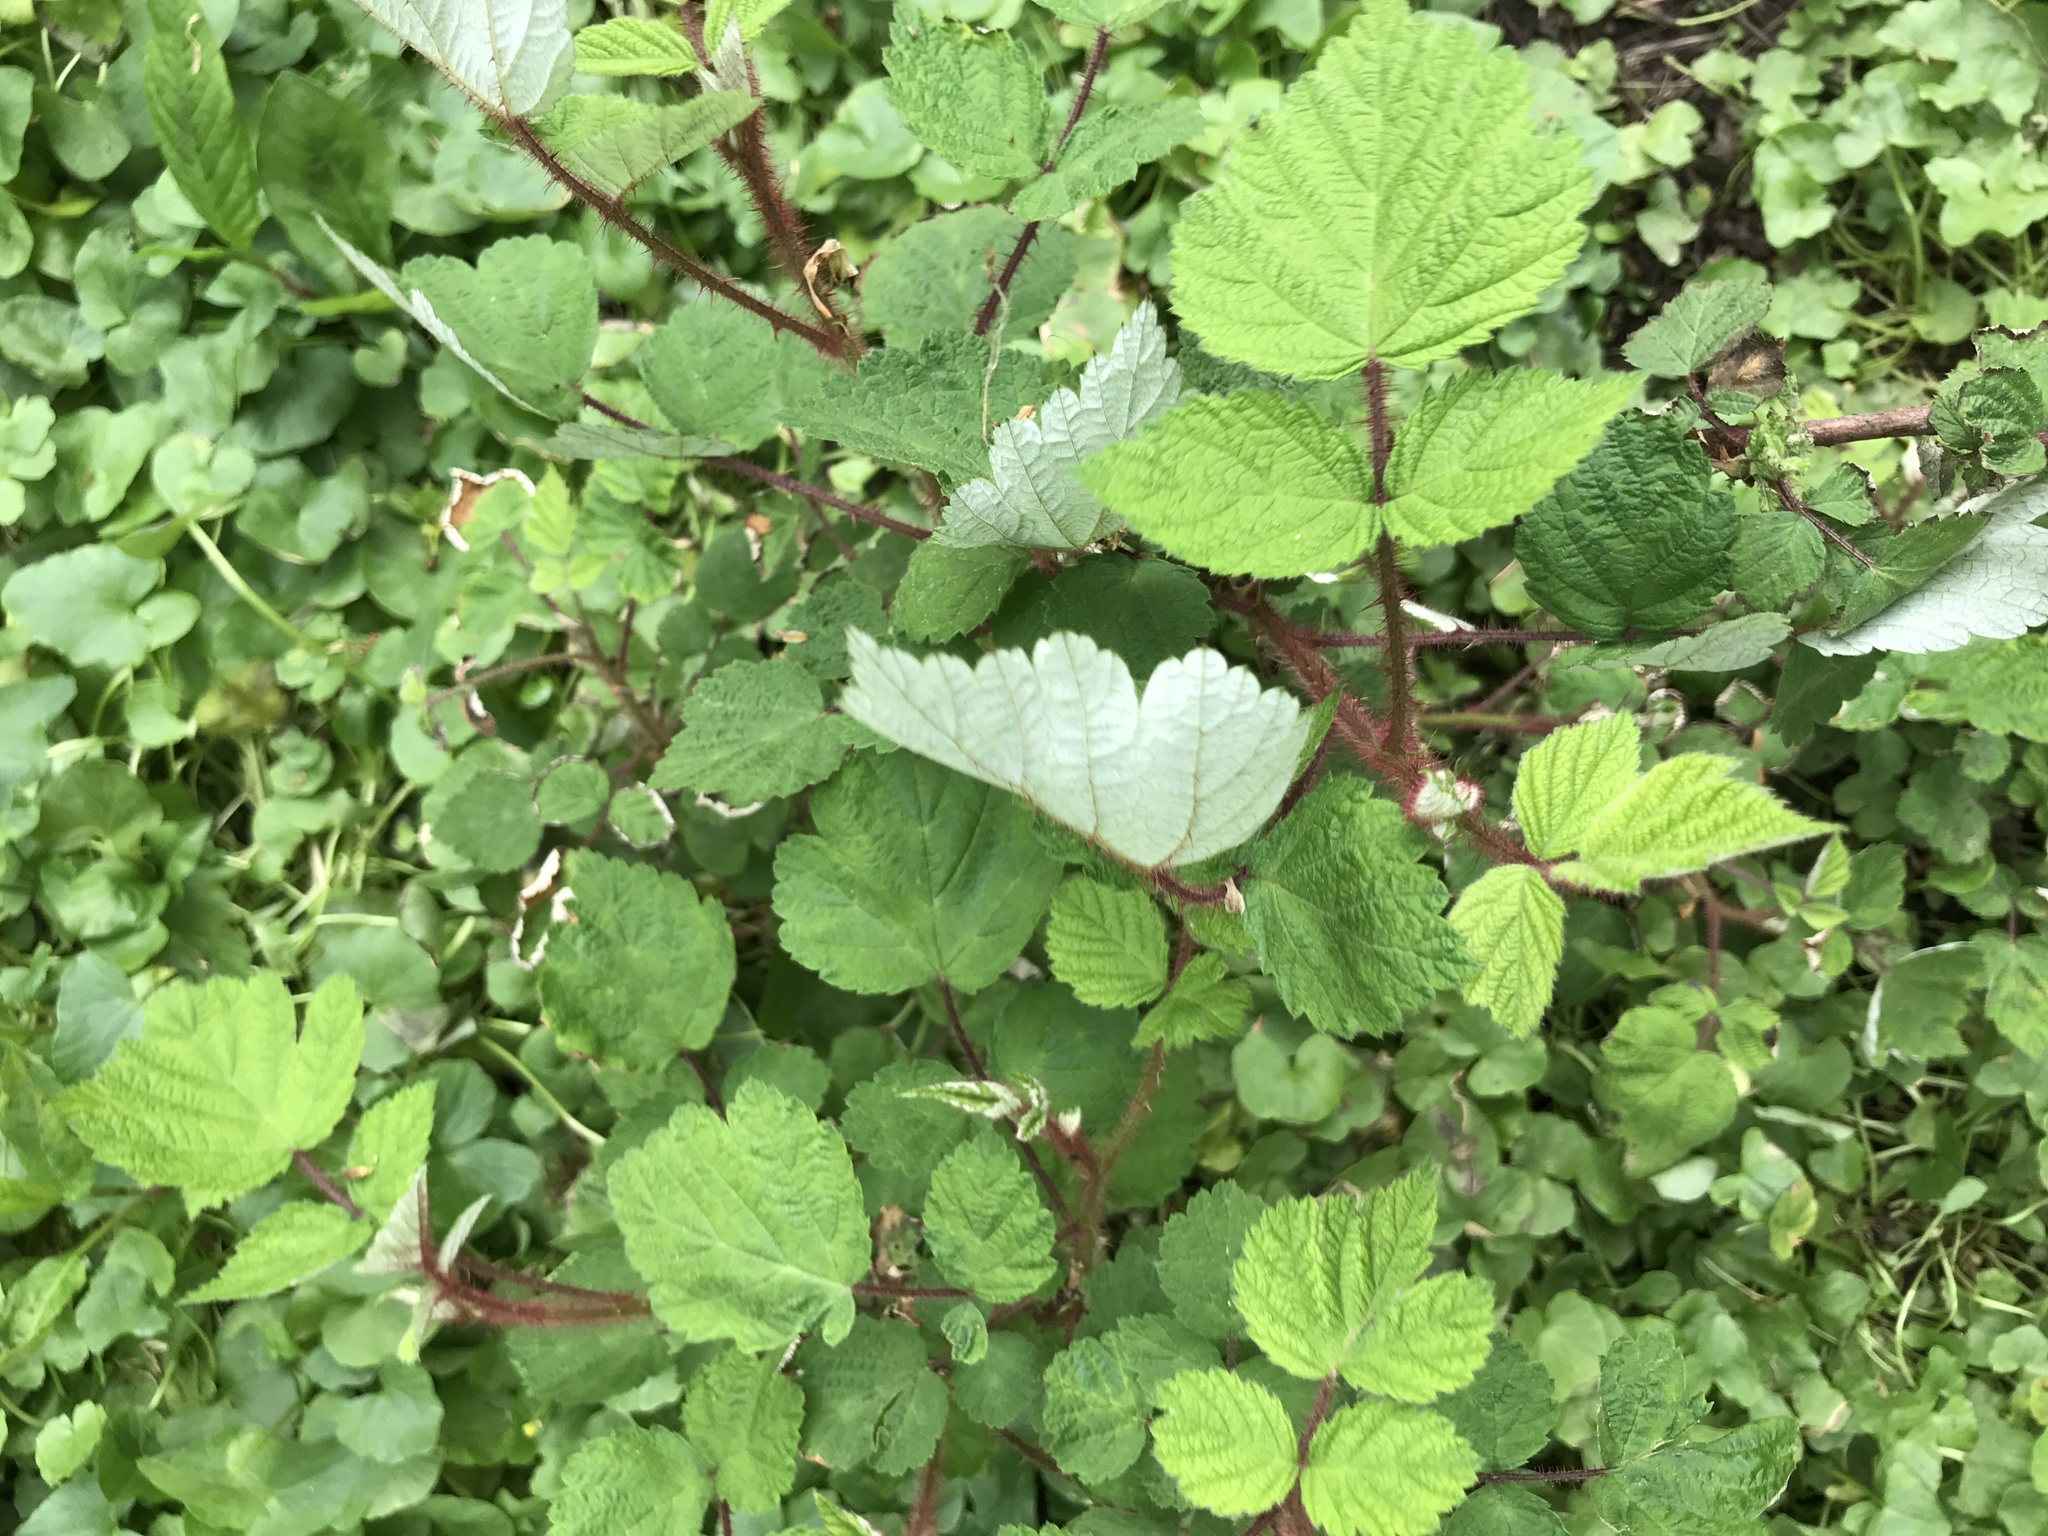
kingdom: Plantae
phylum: Tracheophyta
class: Magnoliopsida
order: Rosales
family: Rosaceae
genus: Rubus
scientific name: Rubus phoenicolasius
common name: Japanese wineberry
